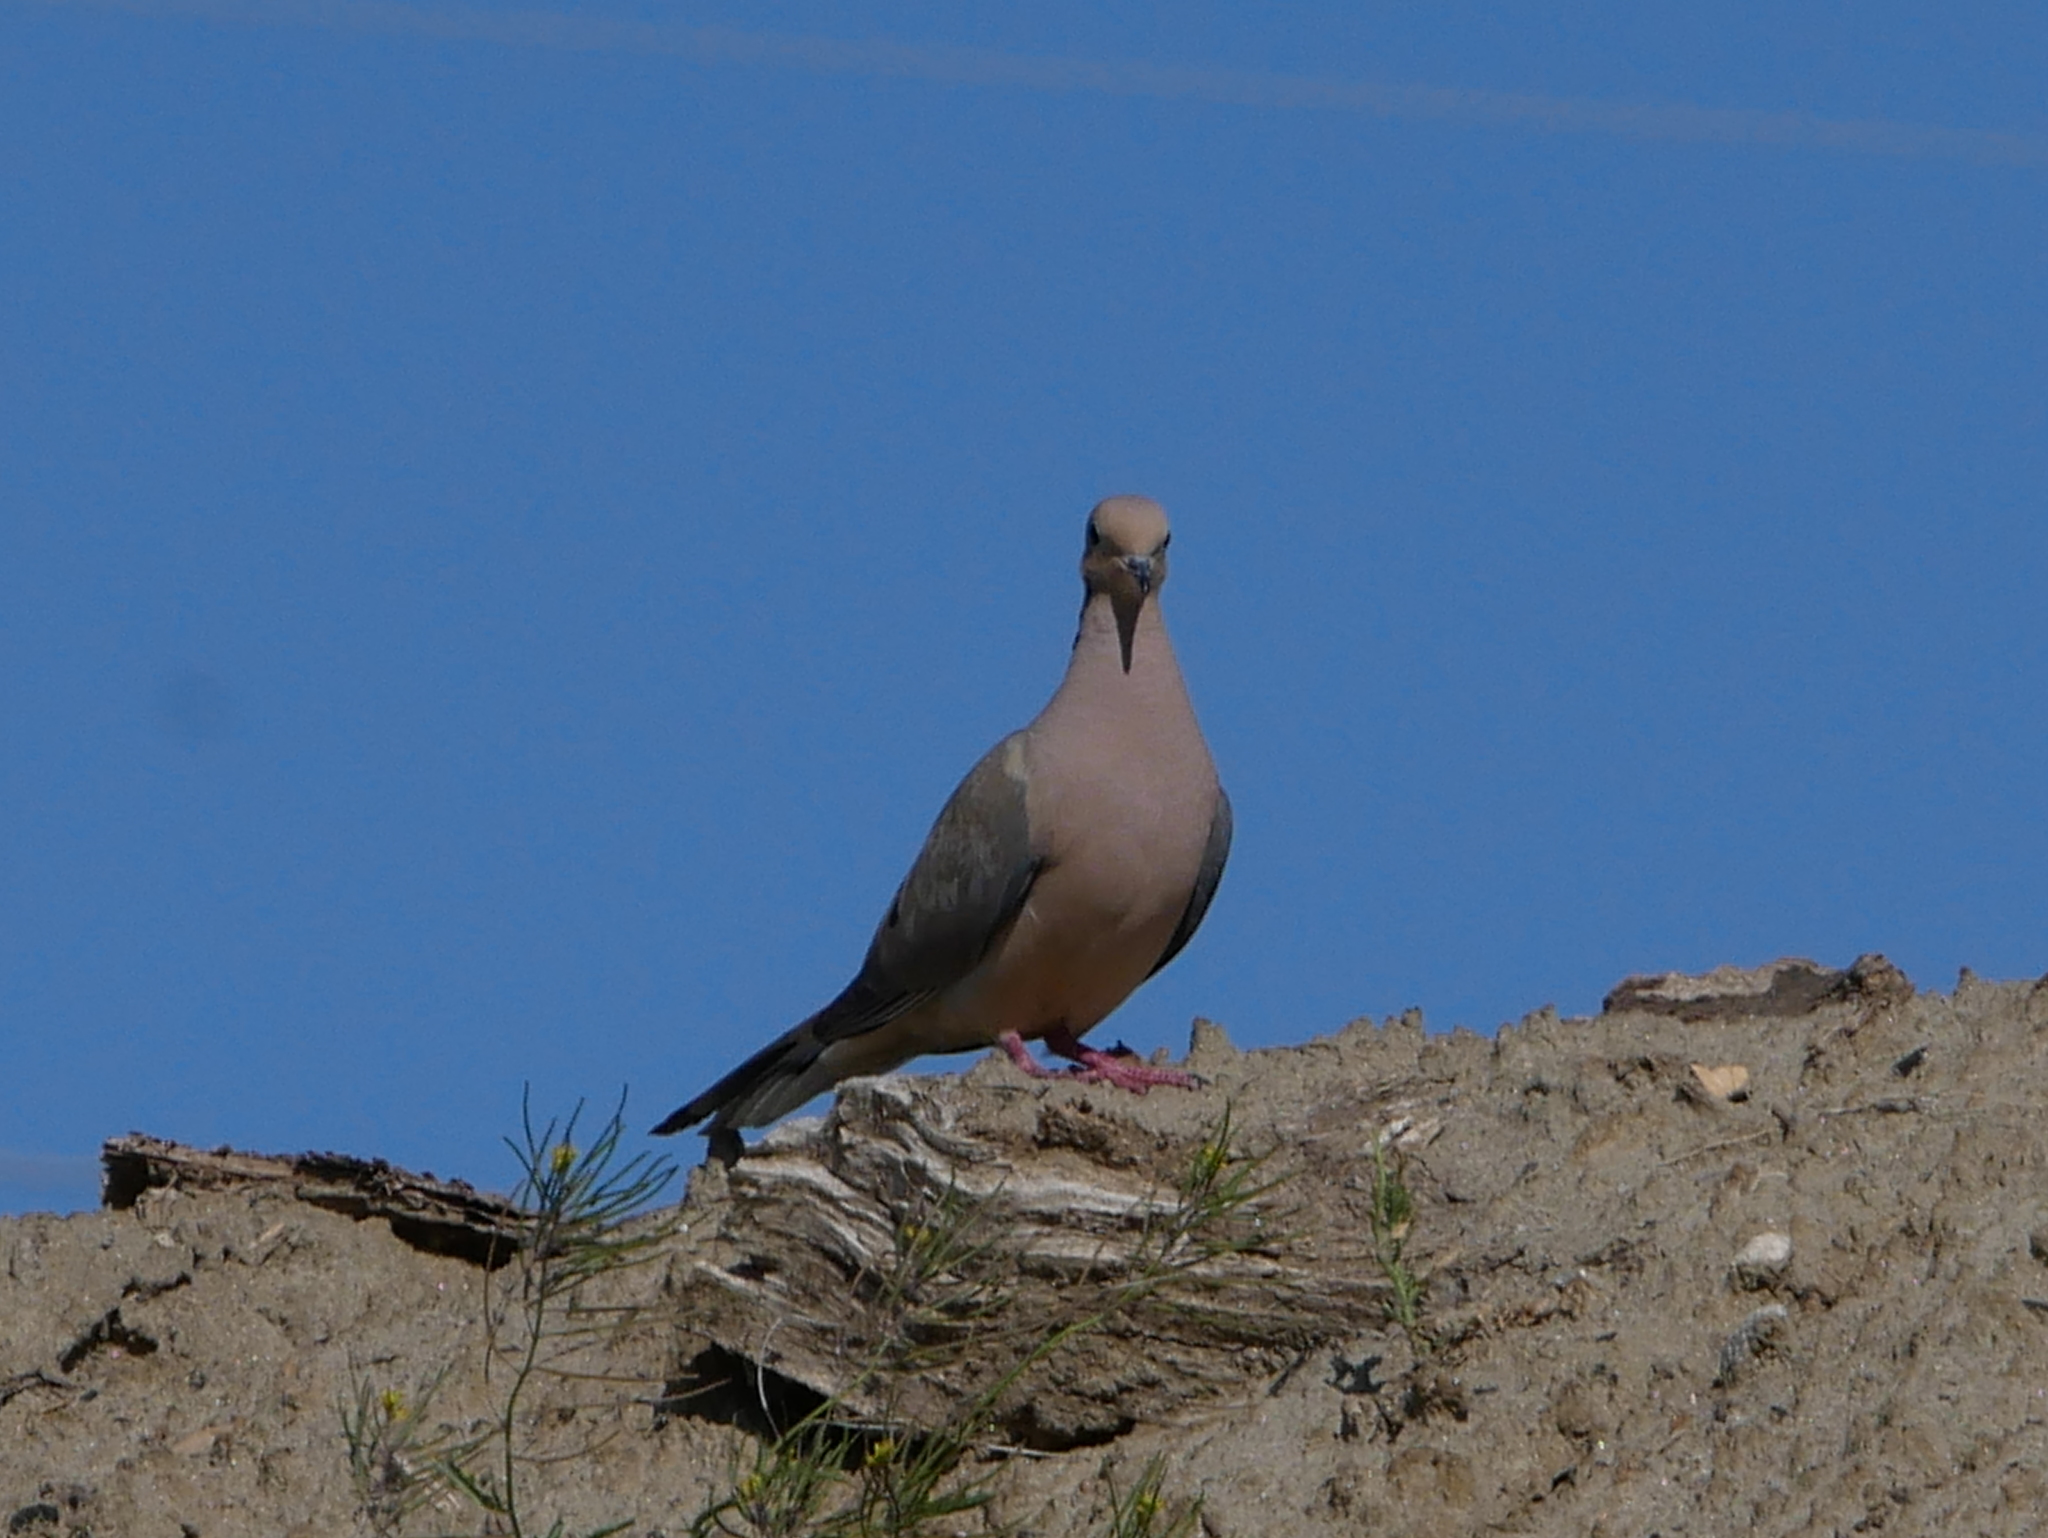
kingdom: Animalia
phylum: Chordata
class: Aves
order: Columbiformes
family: Columbidae
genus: Zenaida
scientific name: Zenaida macroura
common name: Mourning dove
